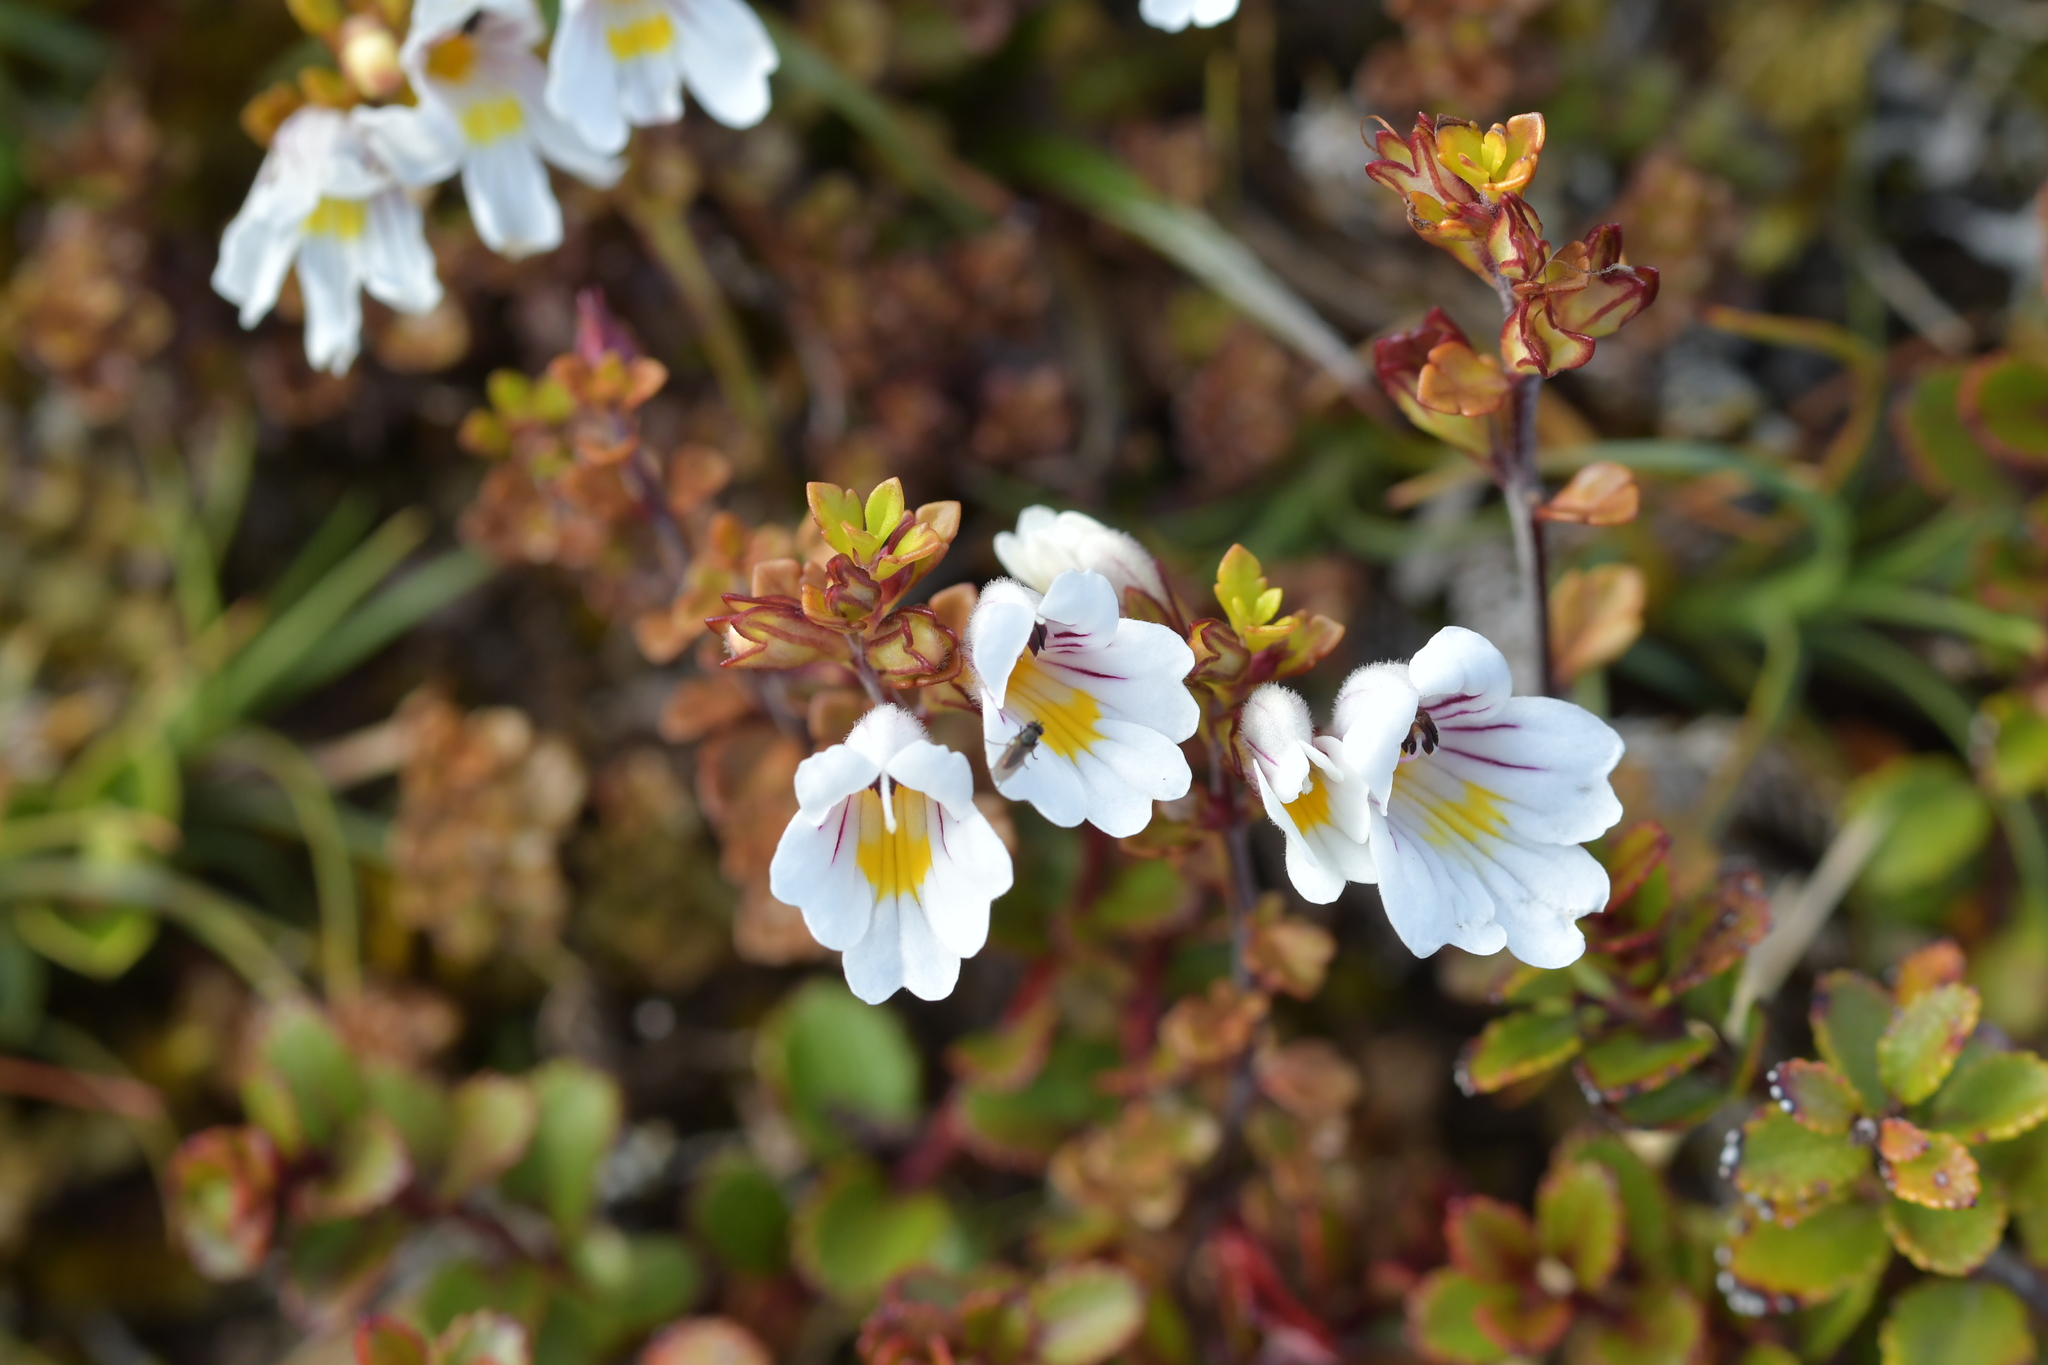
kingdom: Plantae
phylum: Tracheophyta
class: Magnoliopsida
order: Lamiales
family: Orobanchaceae
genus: Euphrasia
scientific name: Euphrasia cuneata
